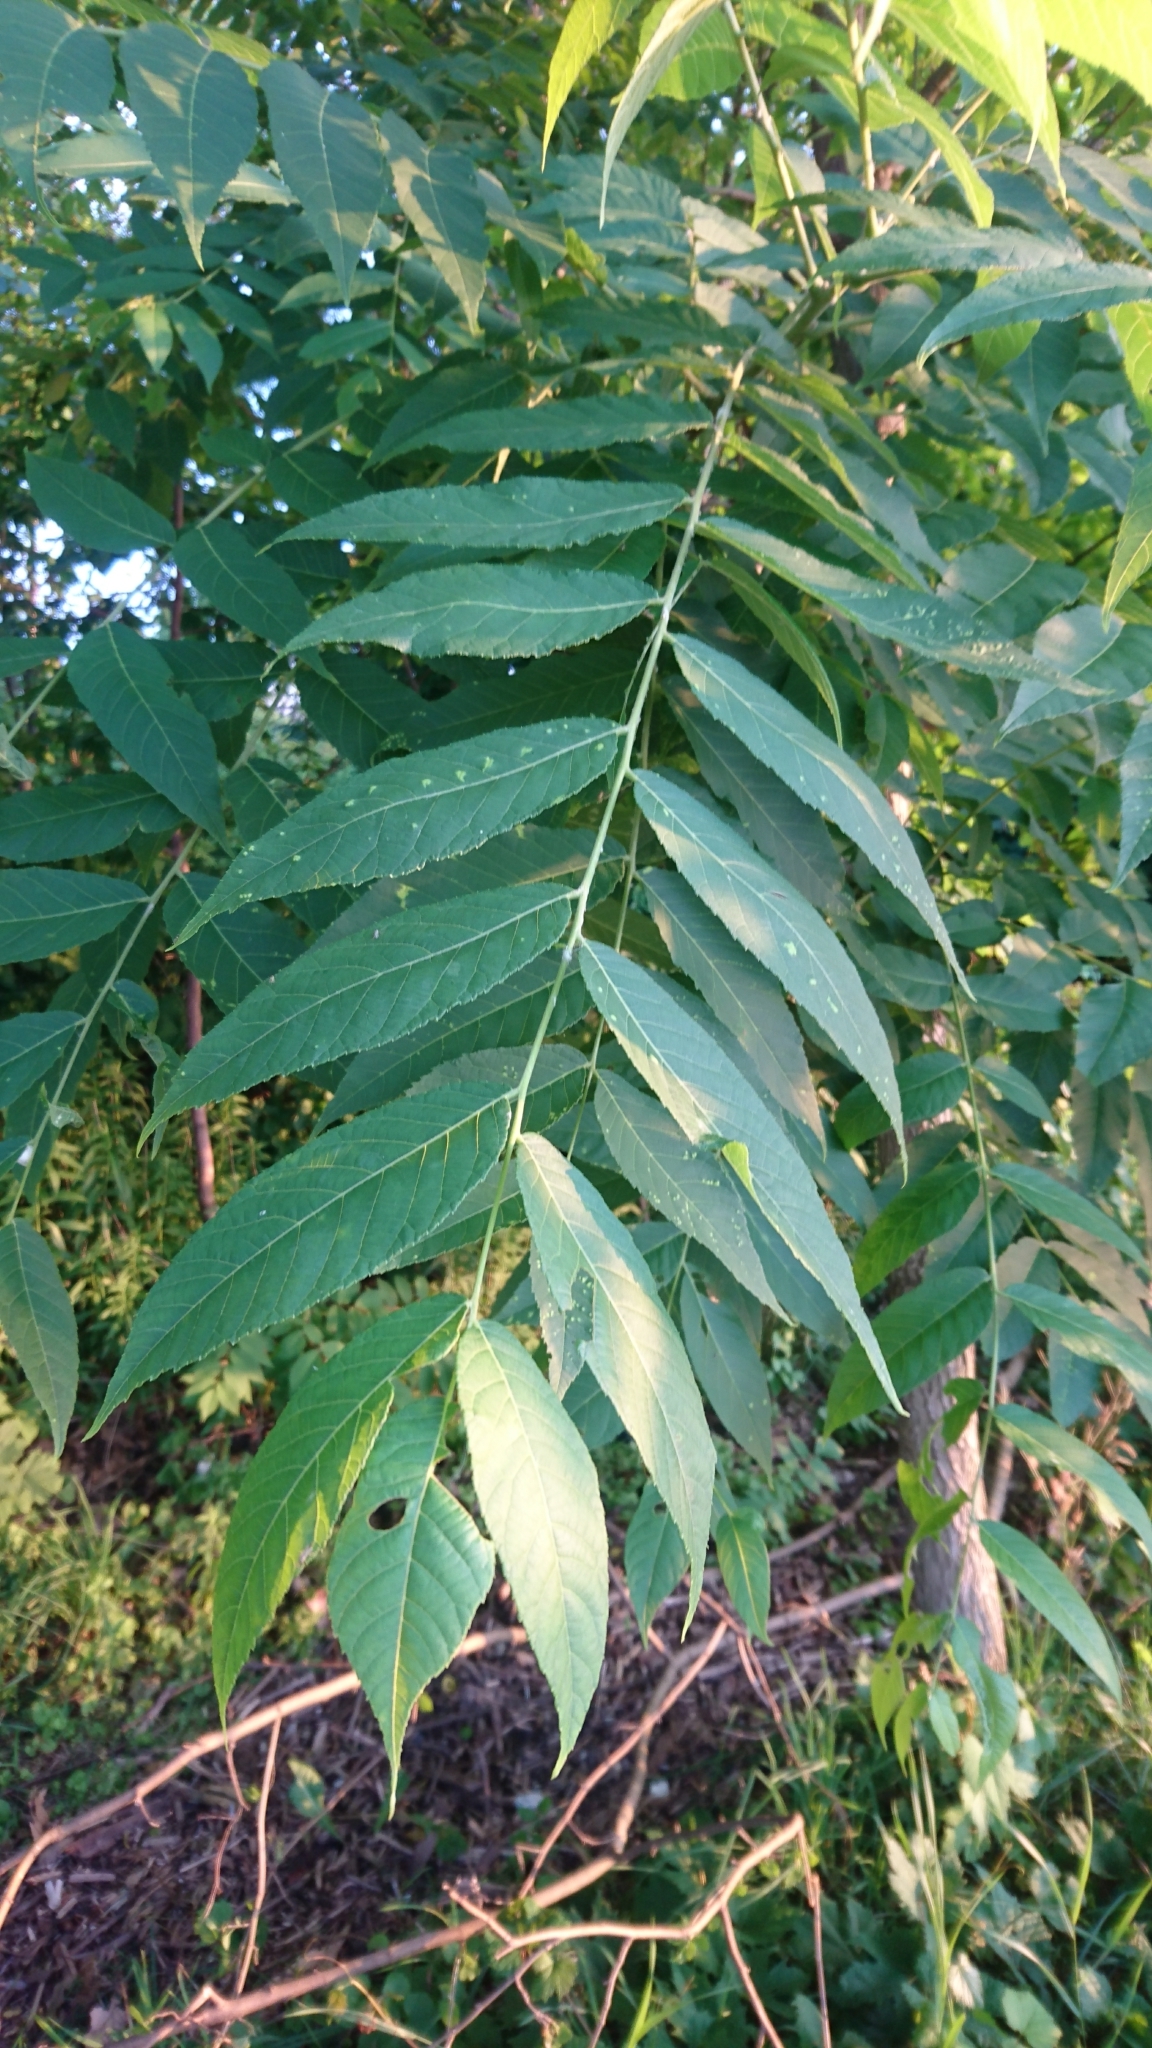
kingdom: Plantae
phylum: Tracheophyta
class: Magnoliopsida
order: Fagales
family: Juglandaceae
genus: Juglans
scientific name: Juglans nigra
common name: Black walnut
